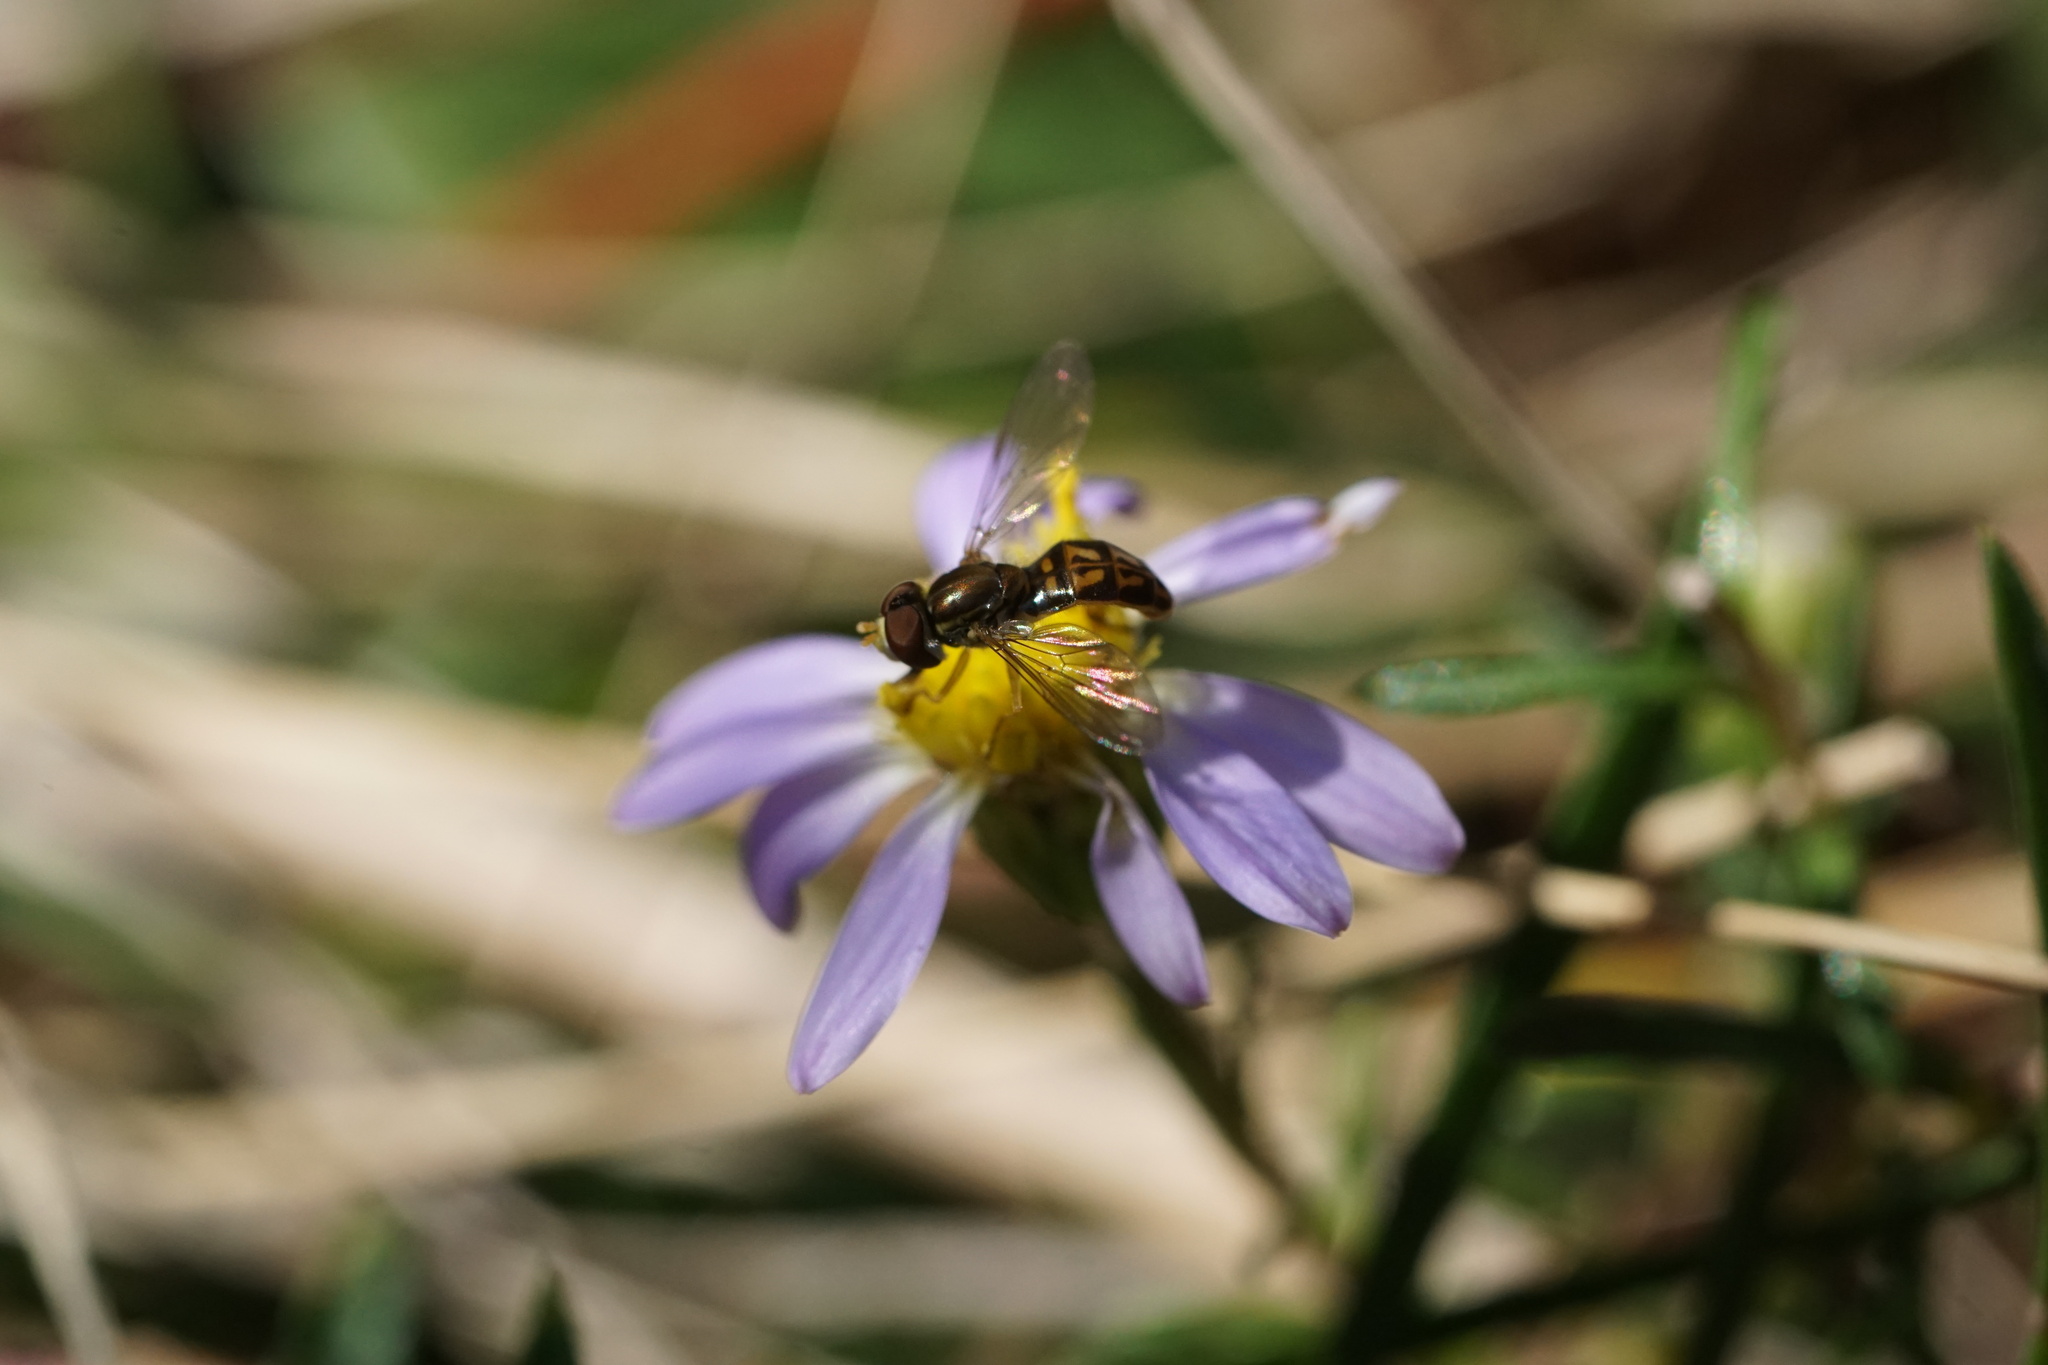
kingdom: Animalia
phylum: Arthropoda
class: Insecta
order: Diptera
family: Syrphidae
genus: Toxomerus
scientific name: Toxomerus marginatus
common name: Syrphid fly
